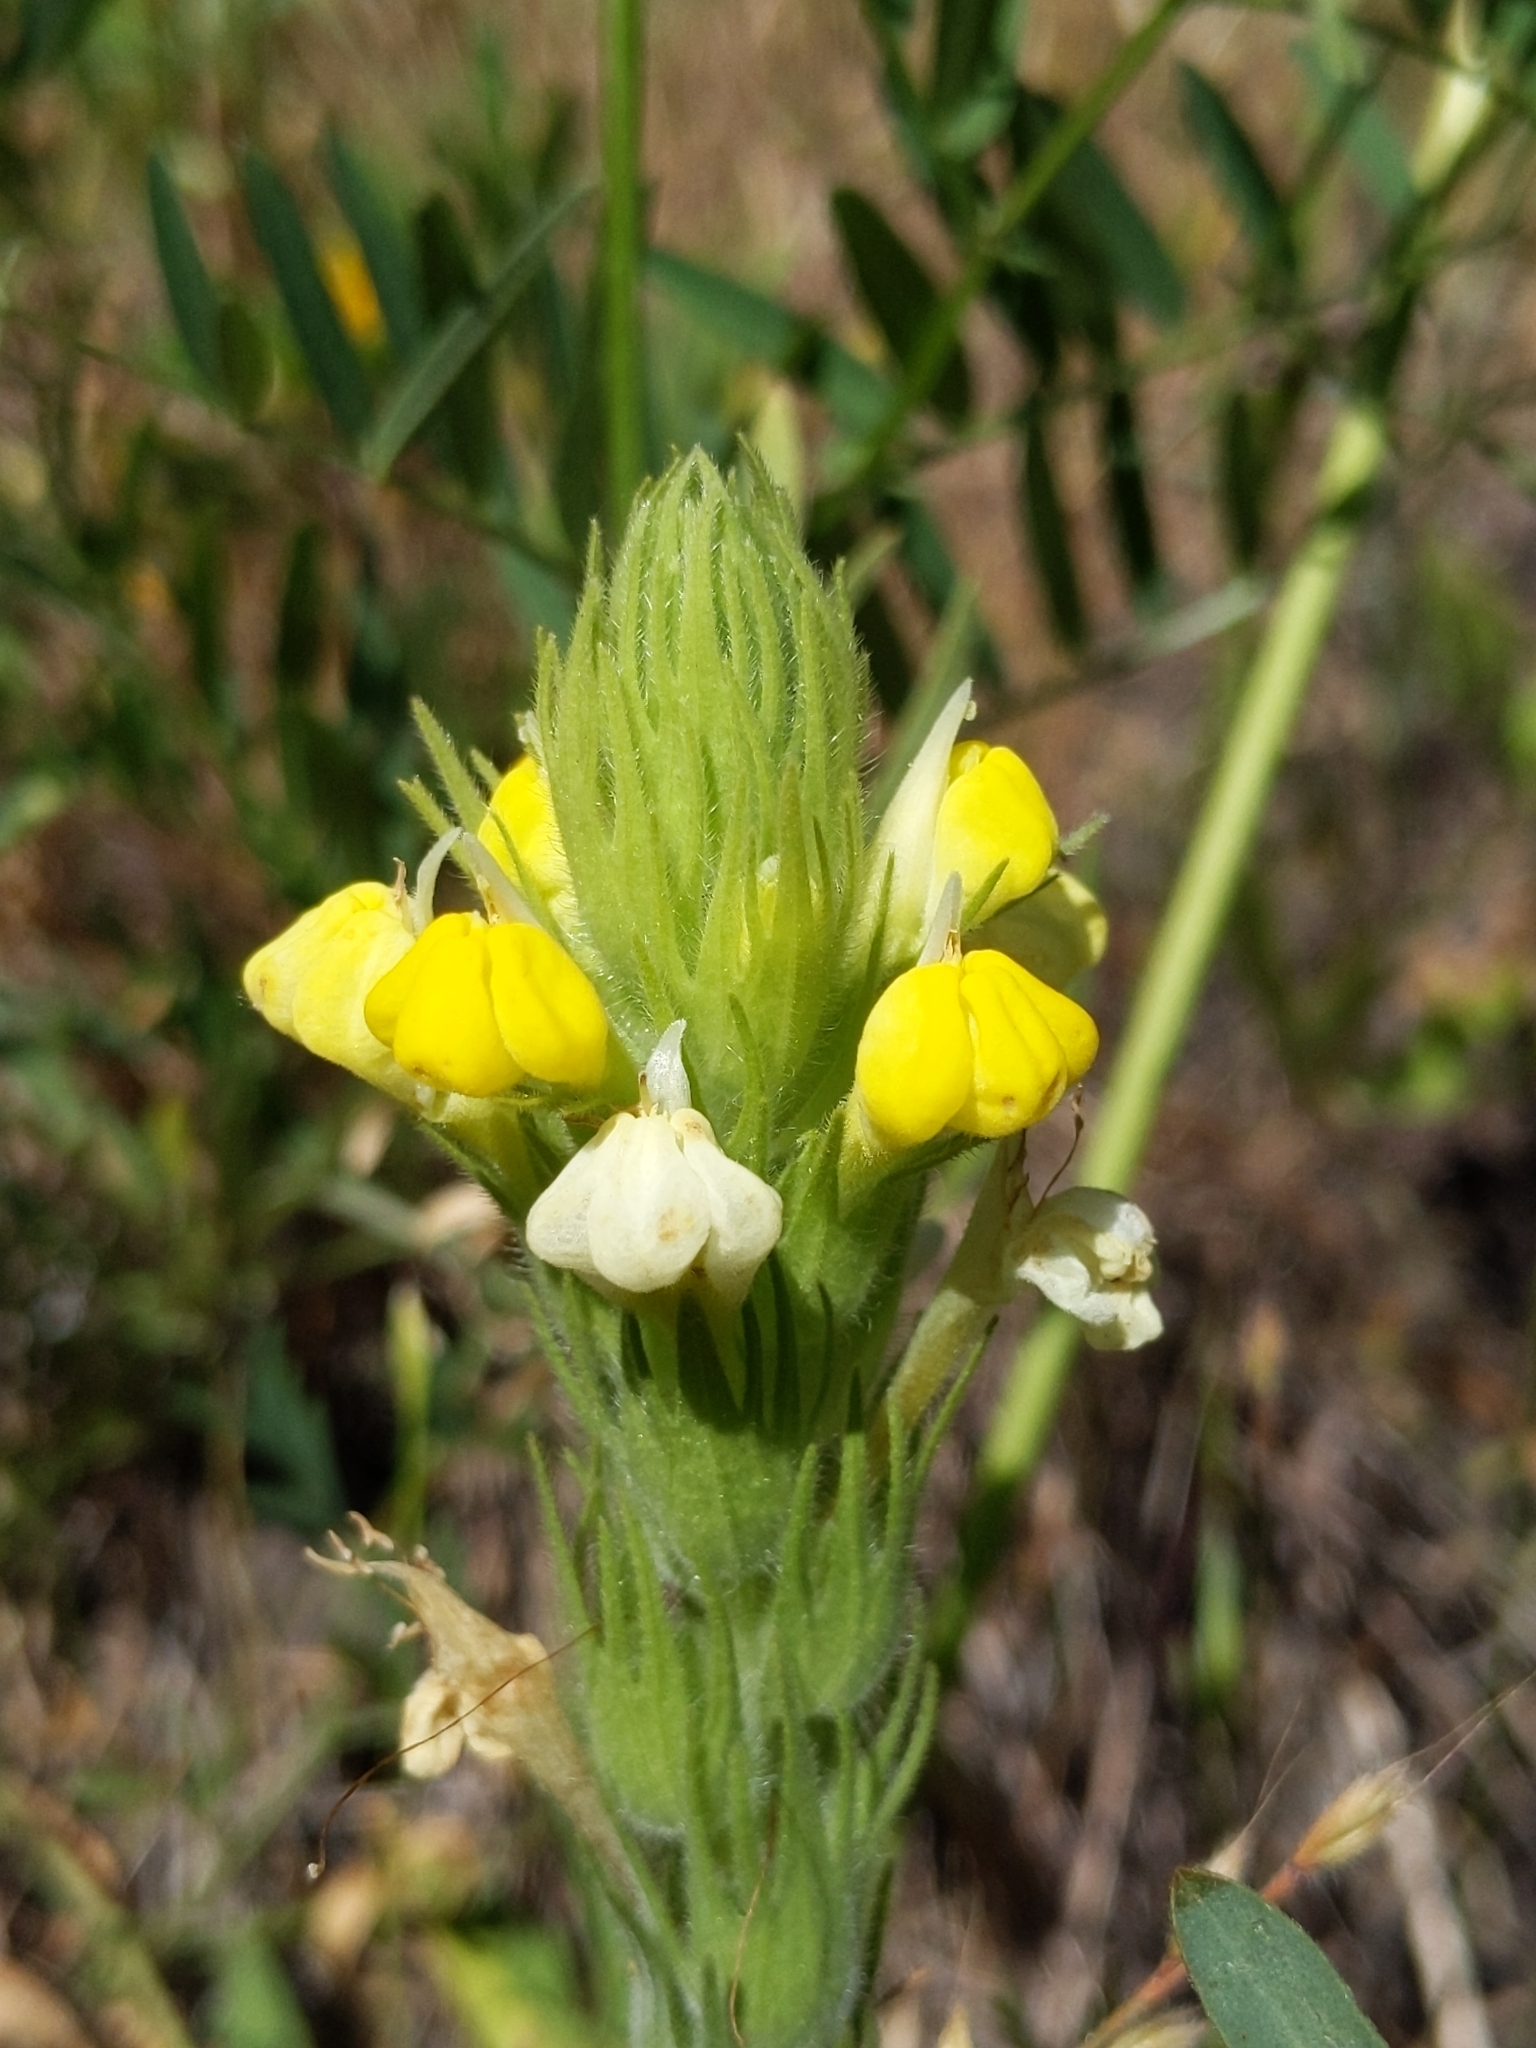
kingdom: Plantae
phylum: Tracheophyta
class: Magnoliopsida
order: Lamiales
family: Orobanchaceae
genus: Castilleja
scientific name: Castilleja rubicundula
